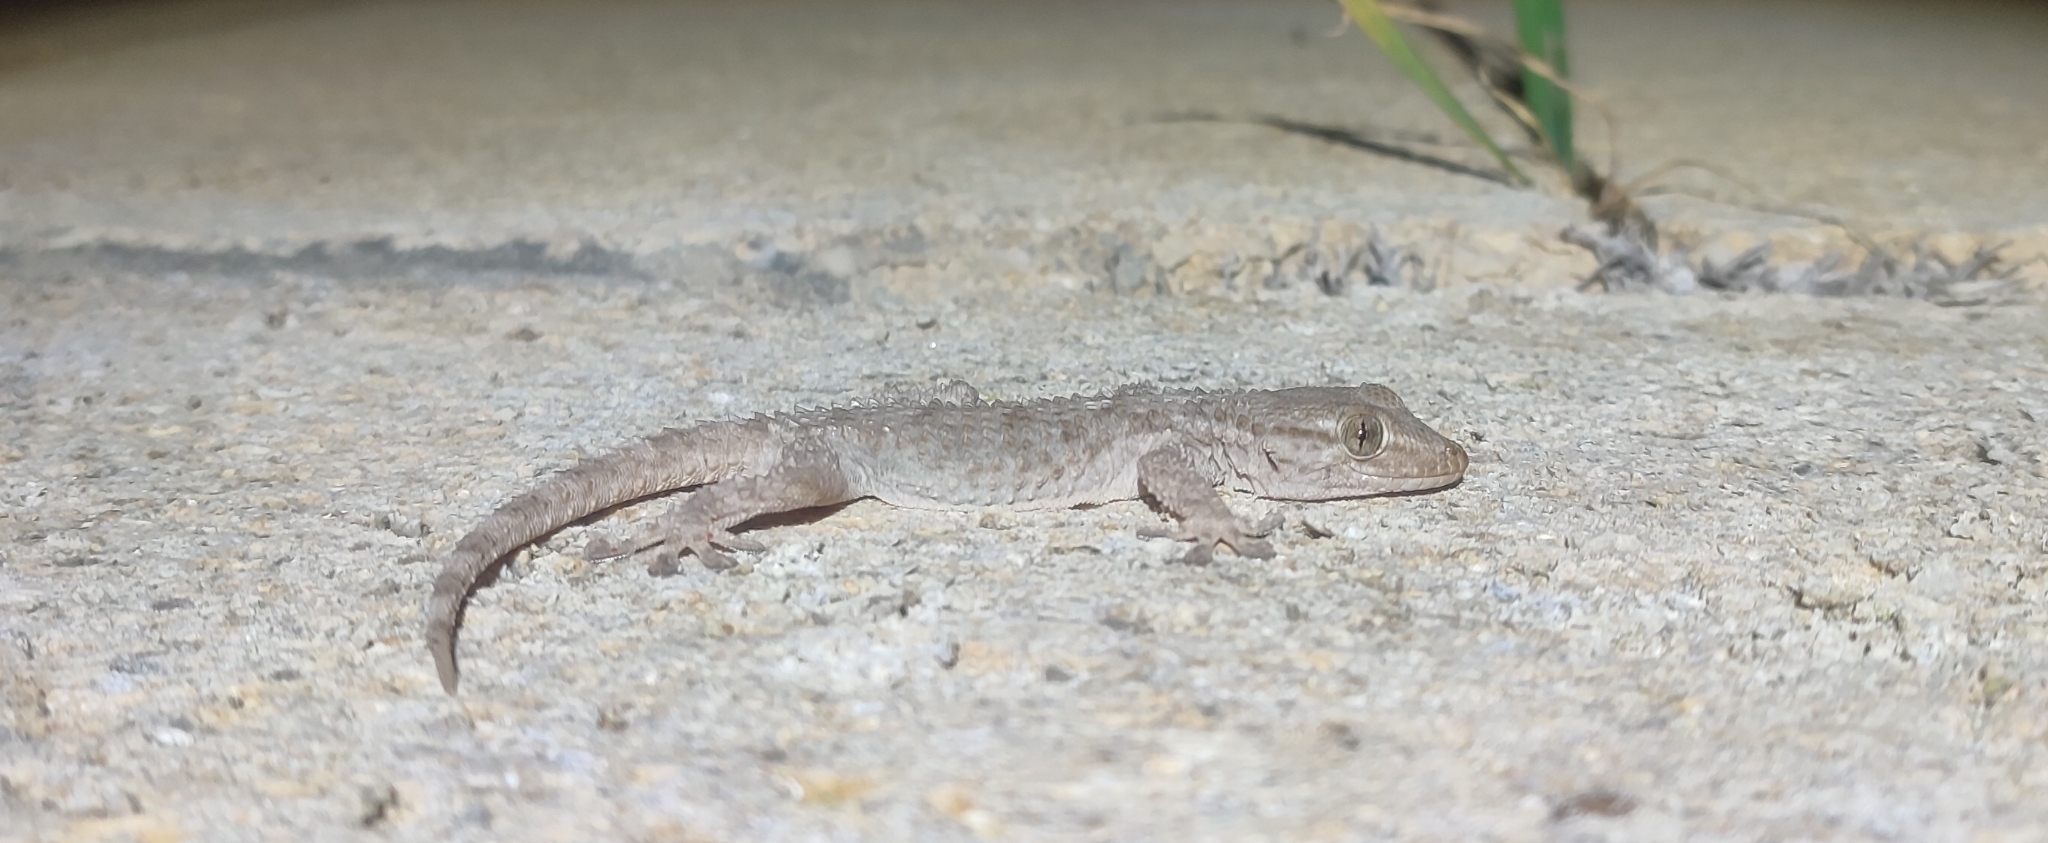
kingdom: Animalia
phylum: Chordata
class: Squamata
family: Phyllodactylidae
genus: Tarentola
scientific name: Tarentola mauritanica
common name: Moorish gecko
